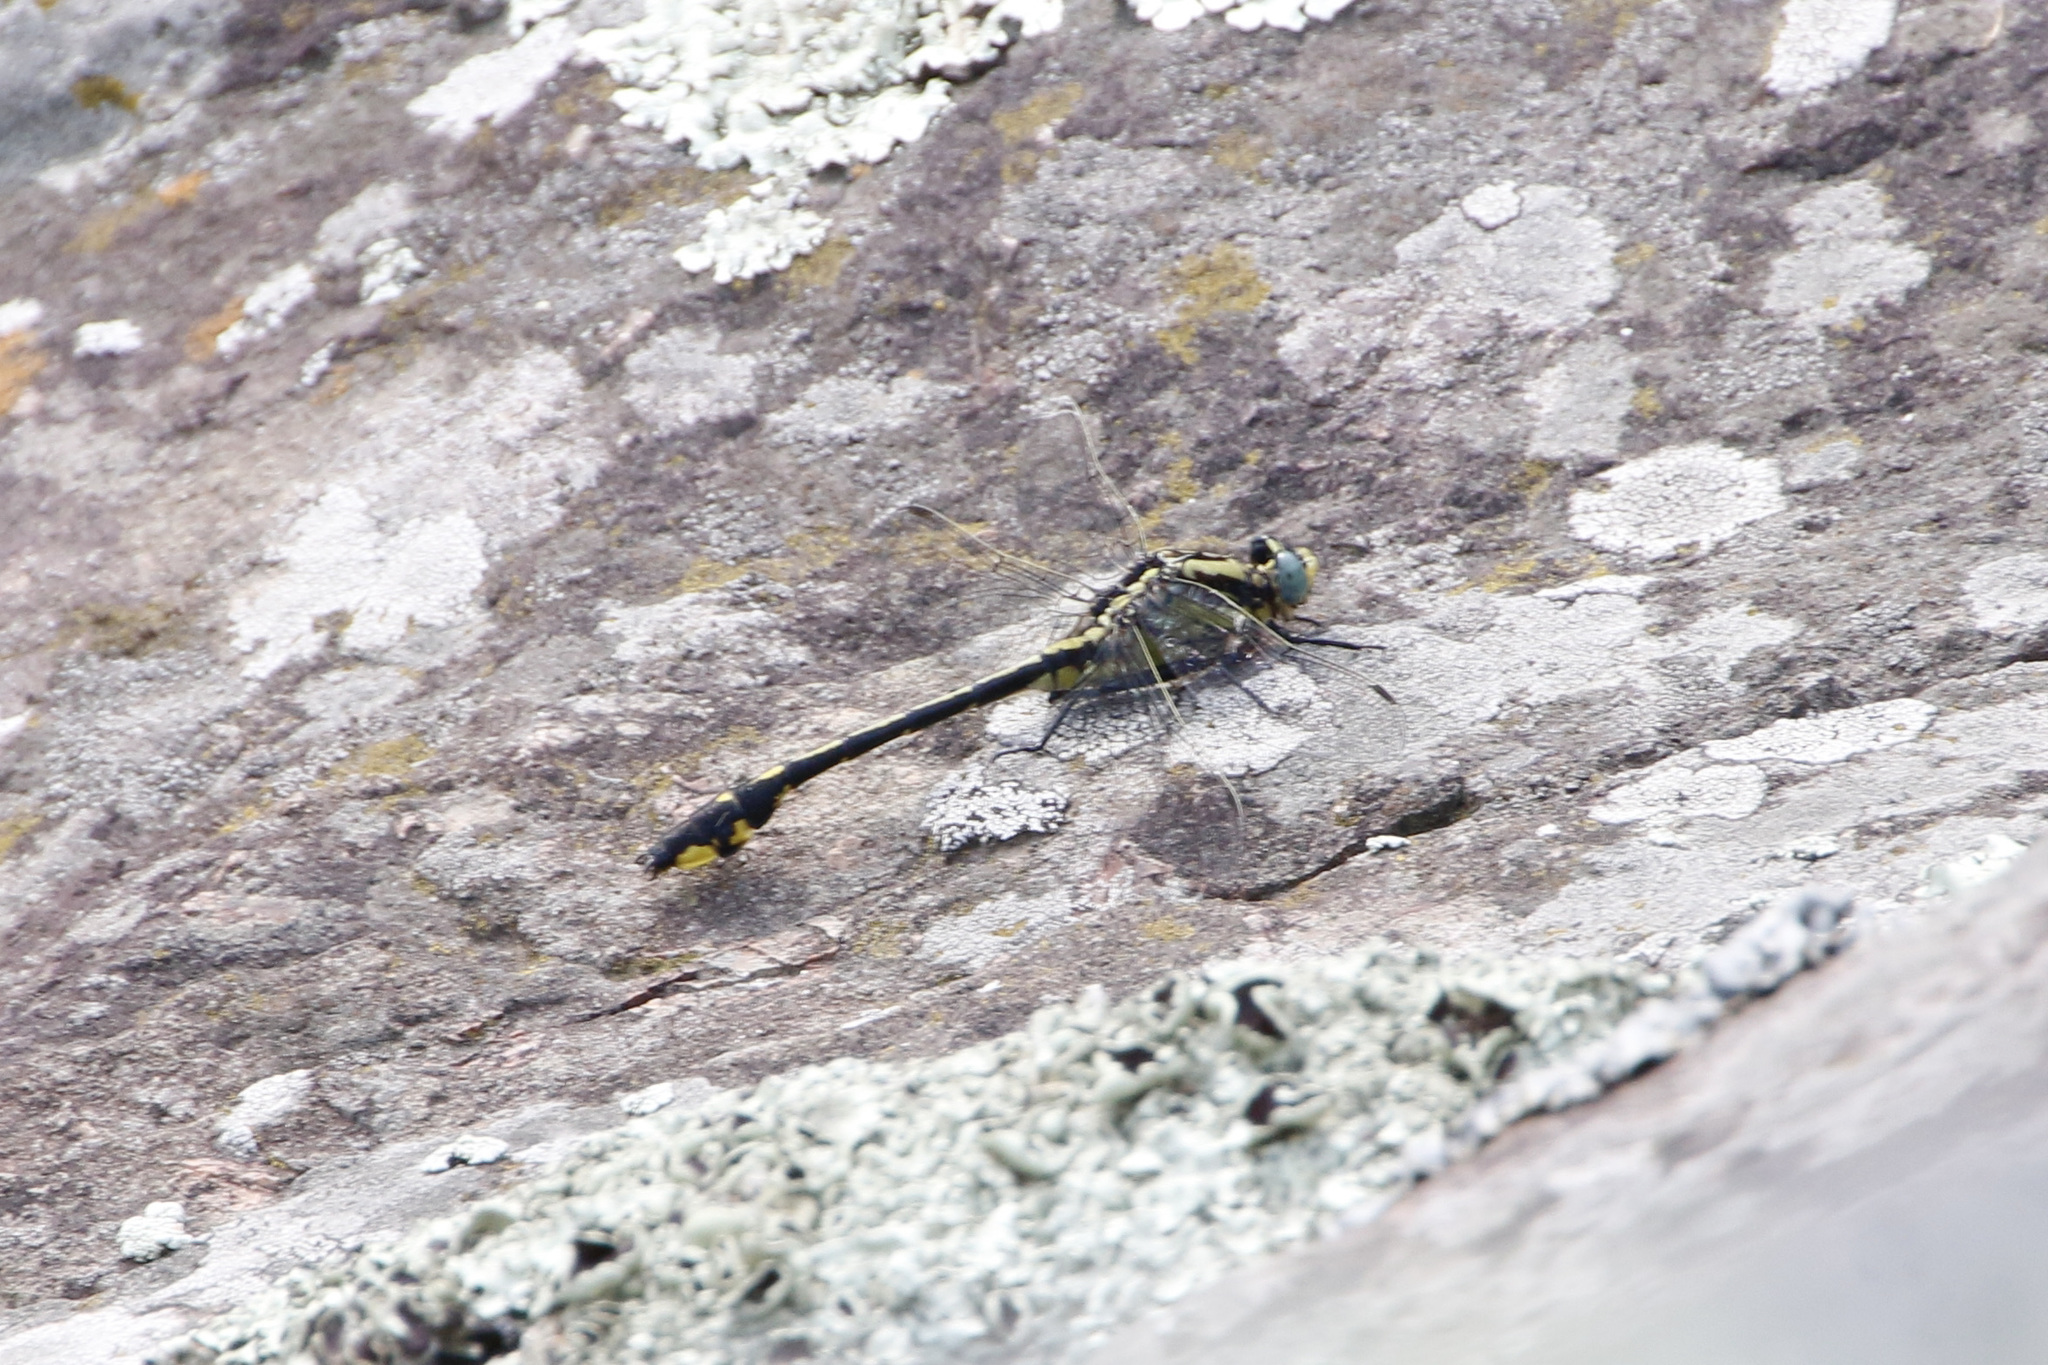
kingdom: Animalia
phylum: Arthropoda
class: Insecta
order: Odonata
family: Gomphidae
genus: Gomphurus
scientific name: Gomphurus fraternus
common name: Midland clubtail
